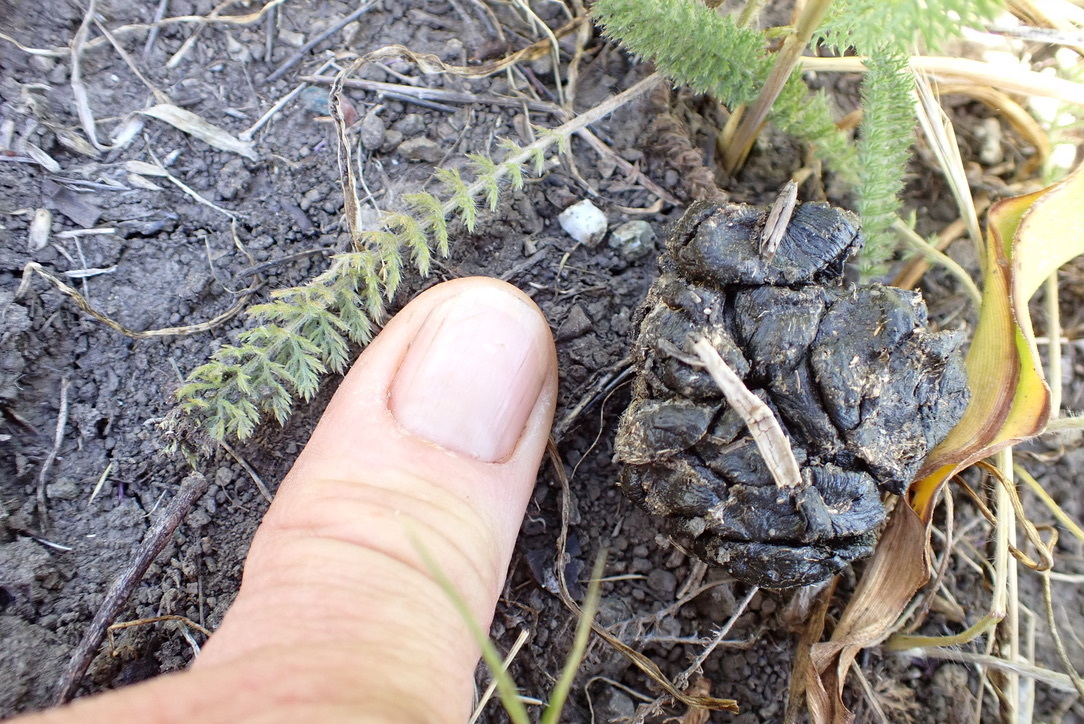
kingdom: Animalia
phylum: Chordata
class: Mammalia
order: Artiodactyla
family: Cervidae
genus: Odocoileus
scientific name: Odocoileus hemionus
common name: Mule deer
